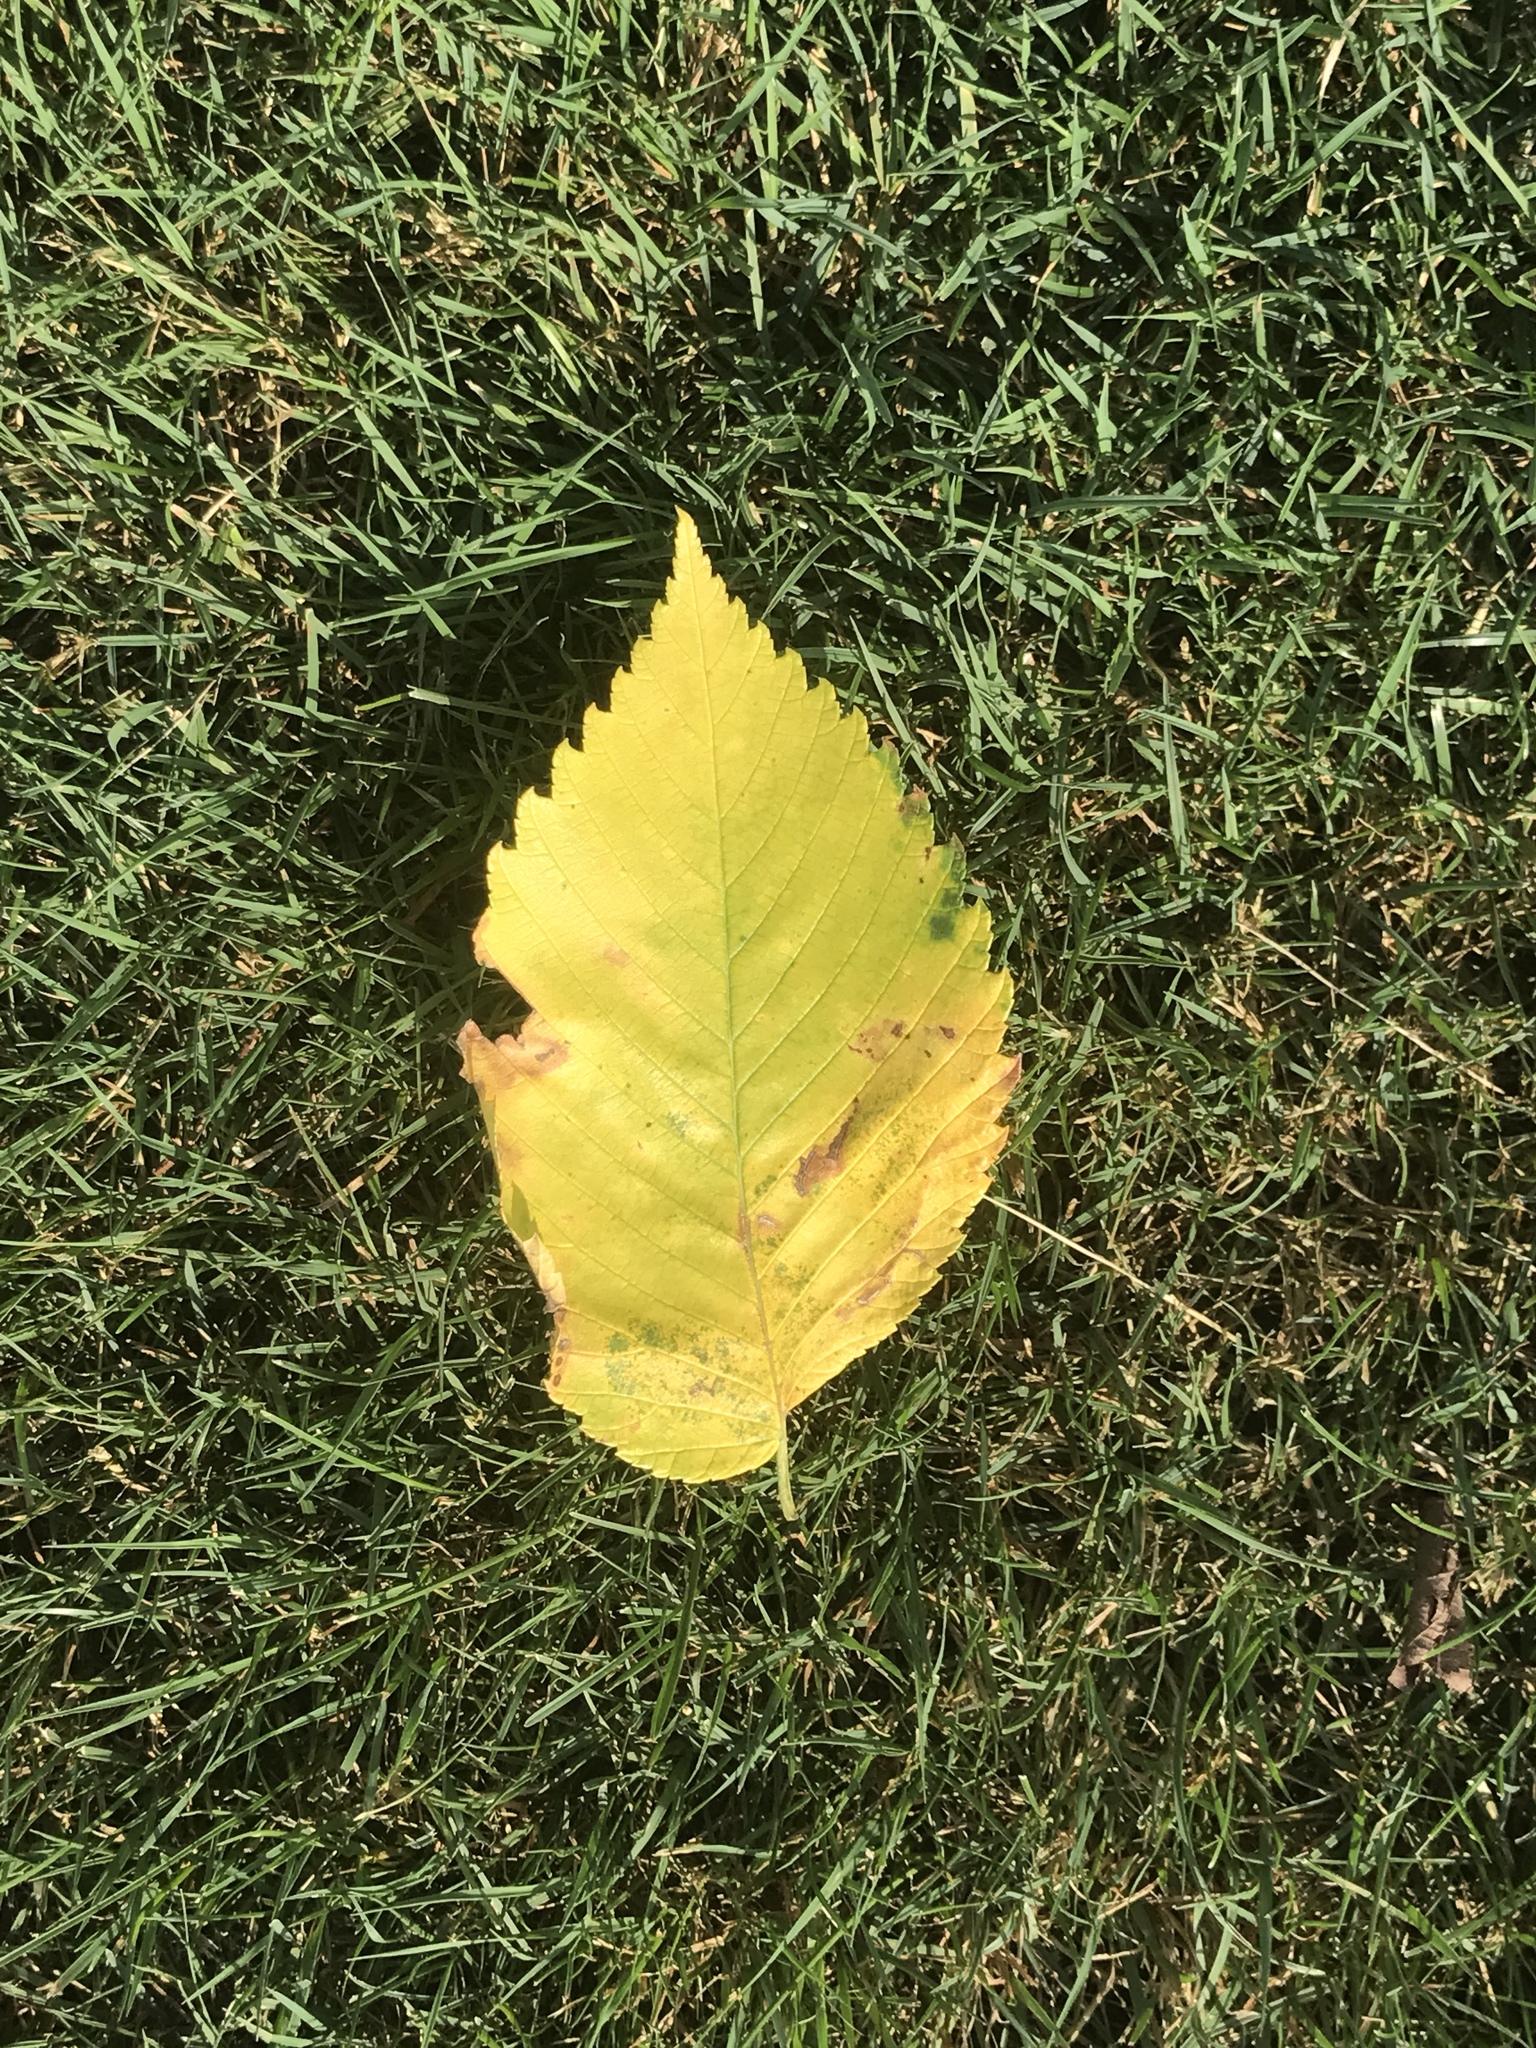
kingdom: Fungi
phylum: Ascomycota
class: Sordariomycetes
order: Microascales
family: Ceratocystidaceae
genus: Ophiostoma
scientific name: Ophiostoma ulmi
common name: Dutch elm disease
